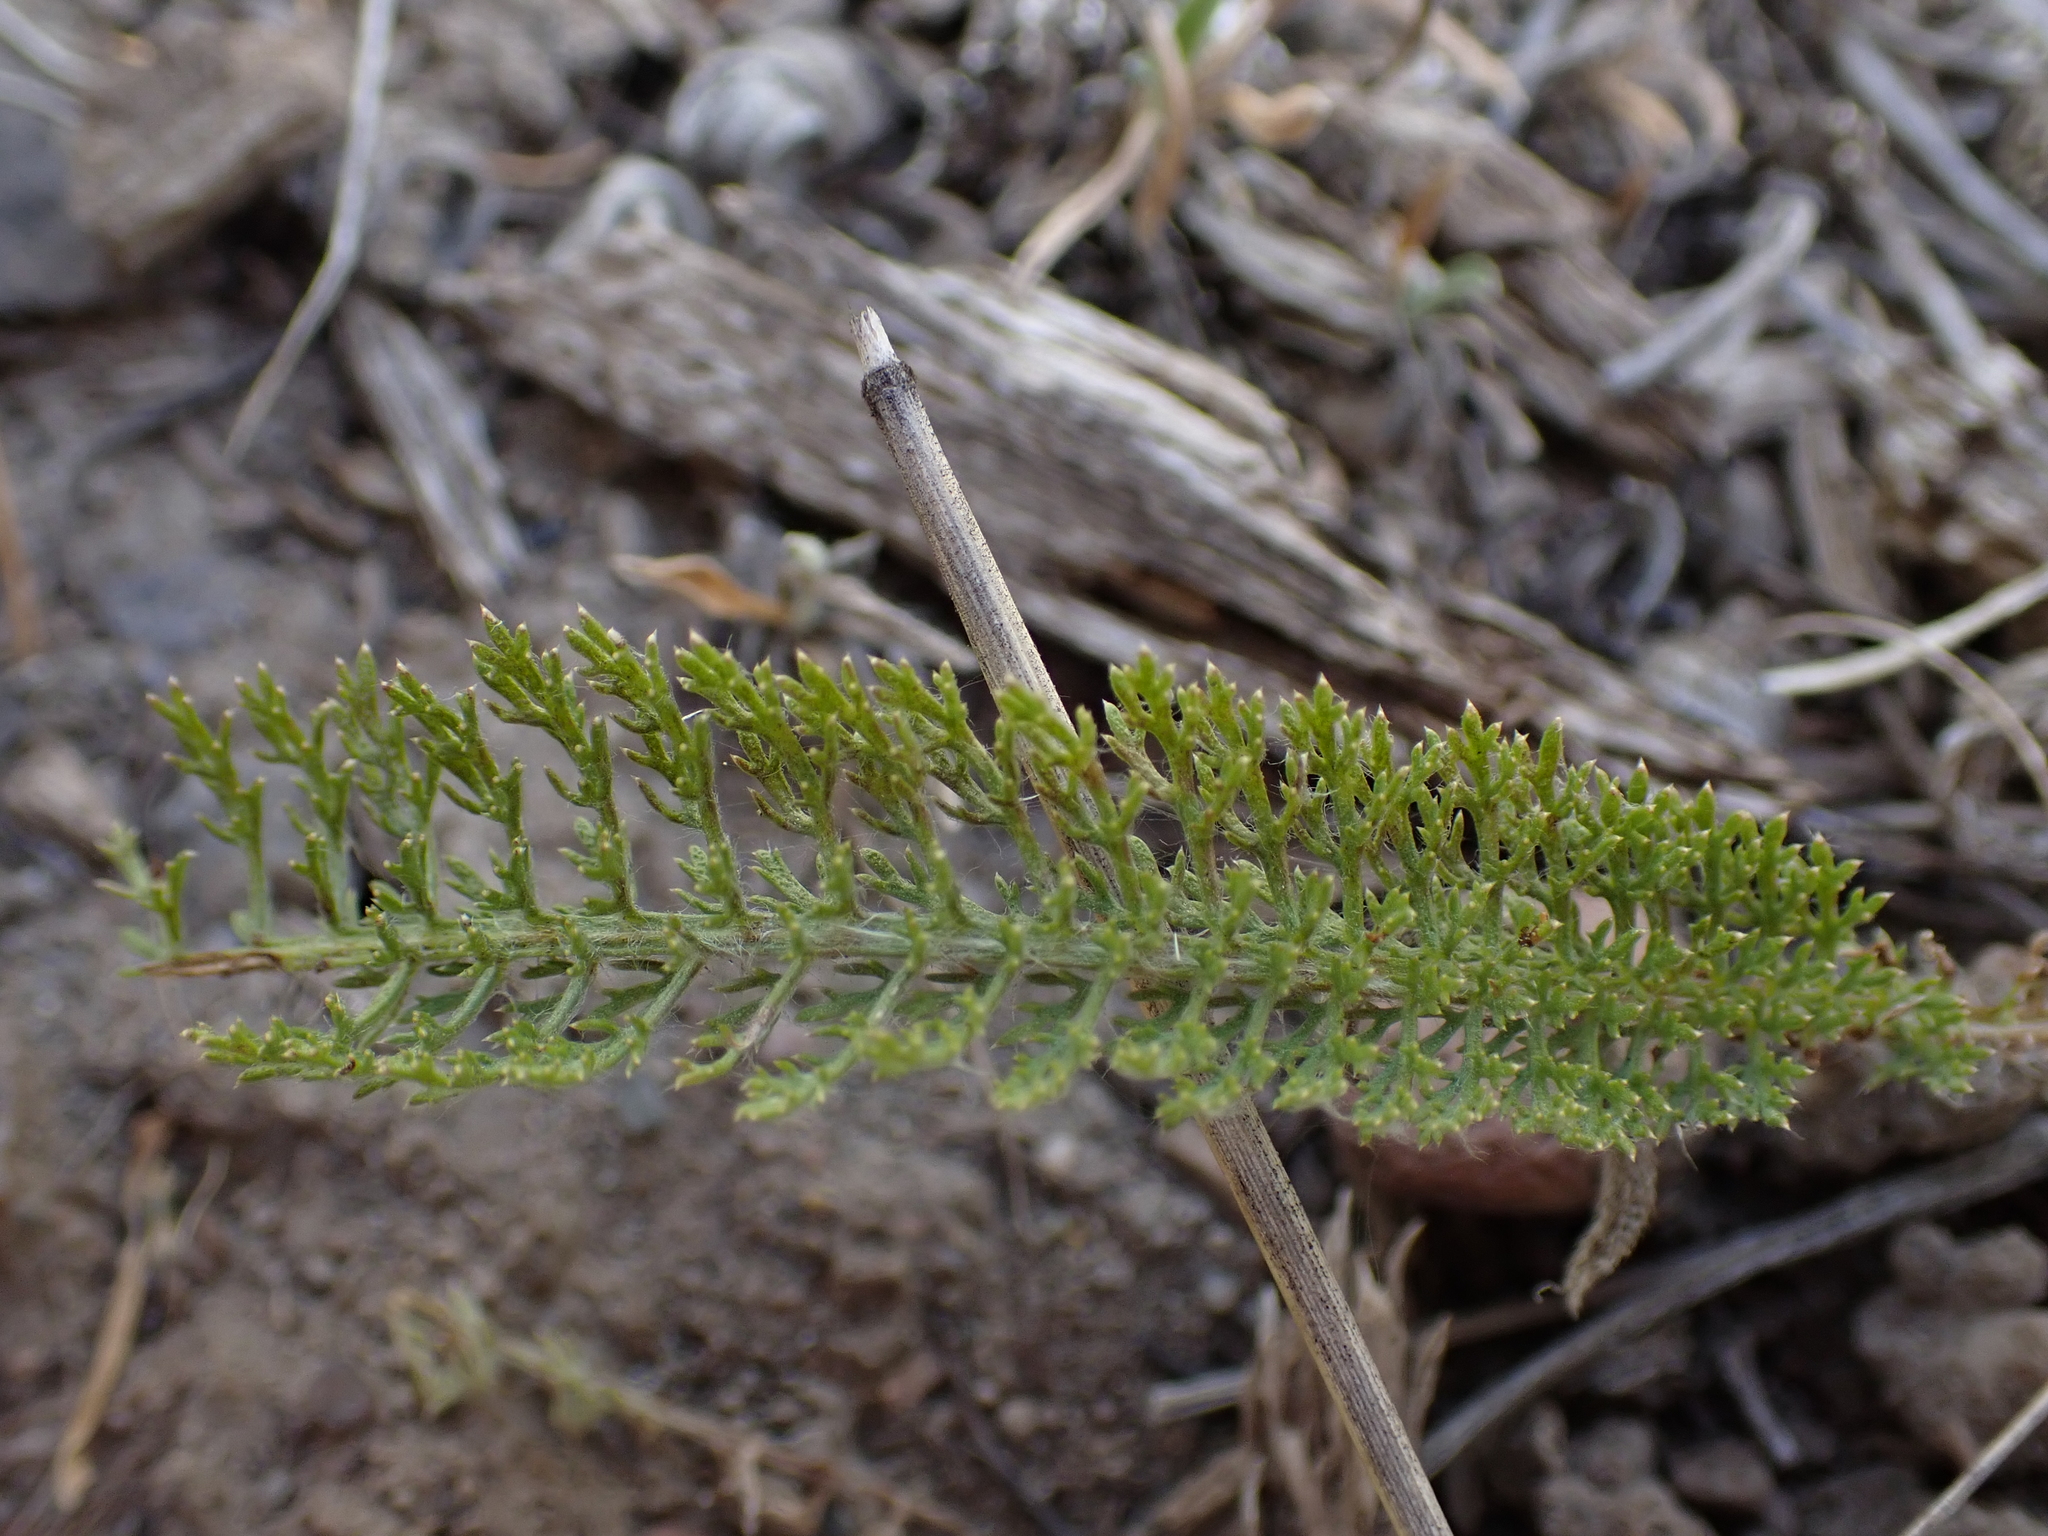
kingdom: Plantae
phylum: Tracheophyta
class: Magnoliopsida
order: Asterales
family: Asteraceae
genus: Achillea
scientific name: Achillea millefolium
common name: Yarrow
